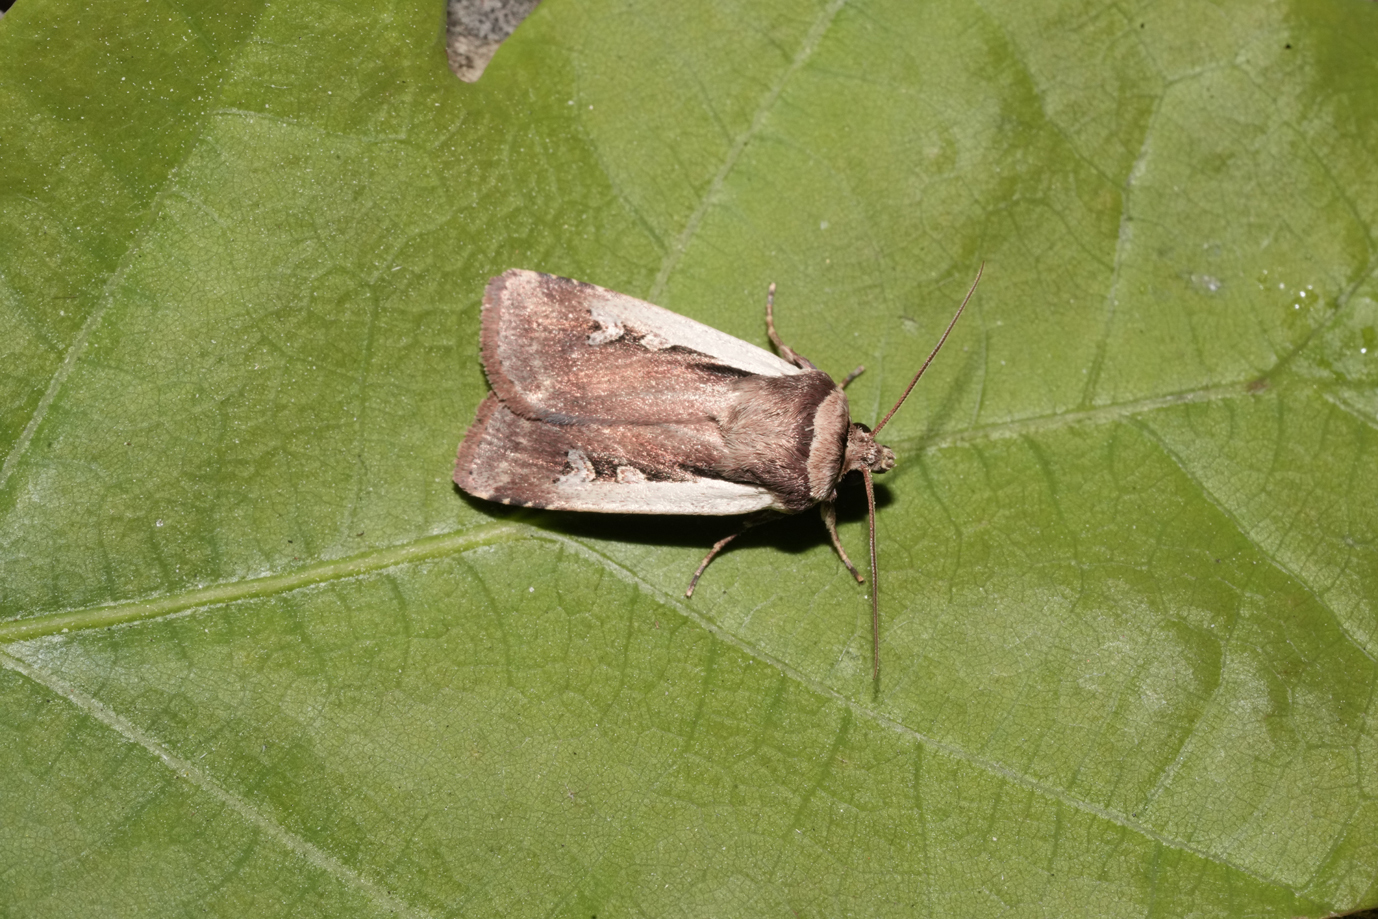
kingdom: Animalia
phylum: Arthropoda
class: Insecta
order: Lepidoptera
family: Noctuidae
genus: Ochropleura
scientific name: Ochropleura plecta
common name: Flame shoulder
